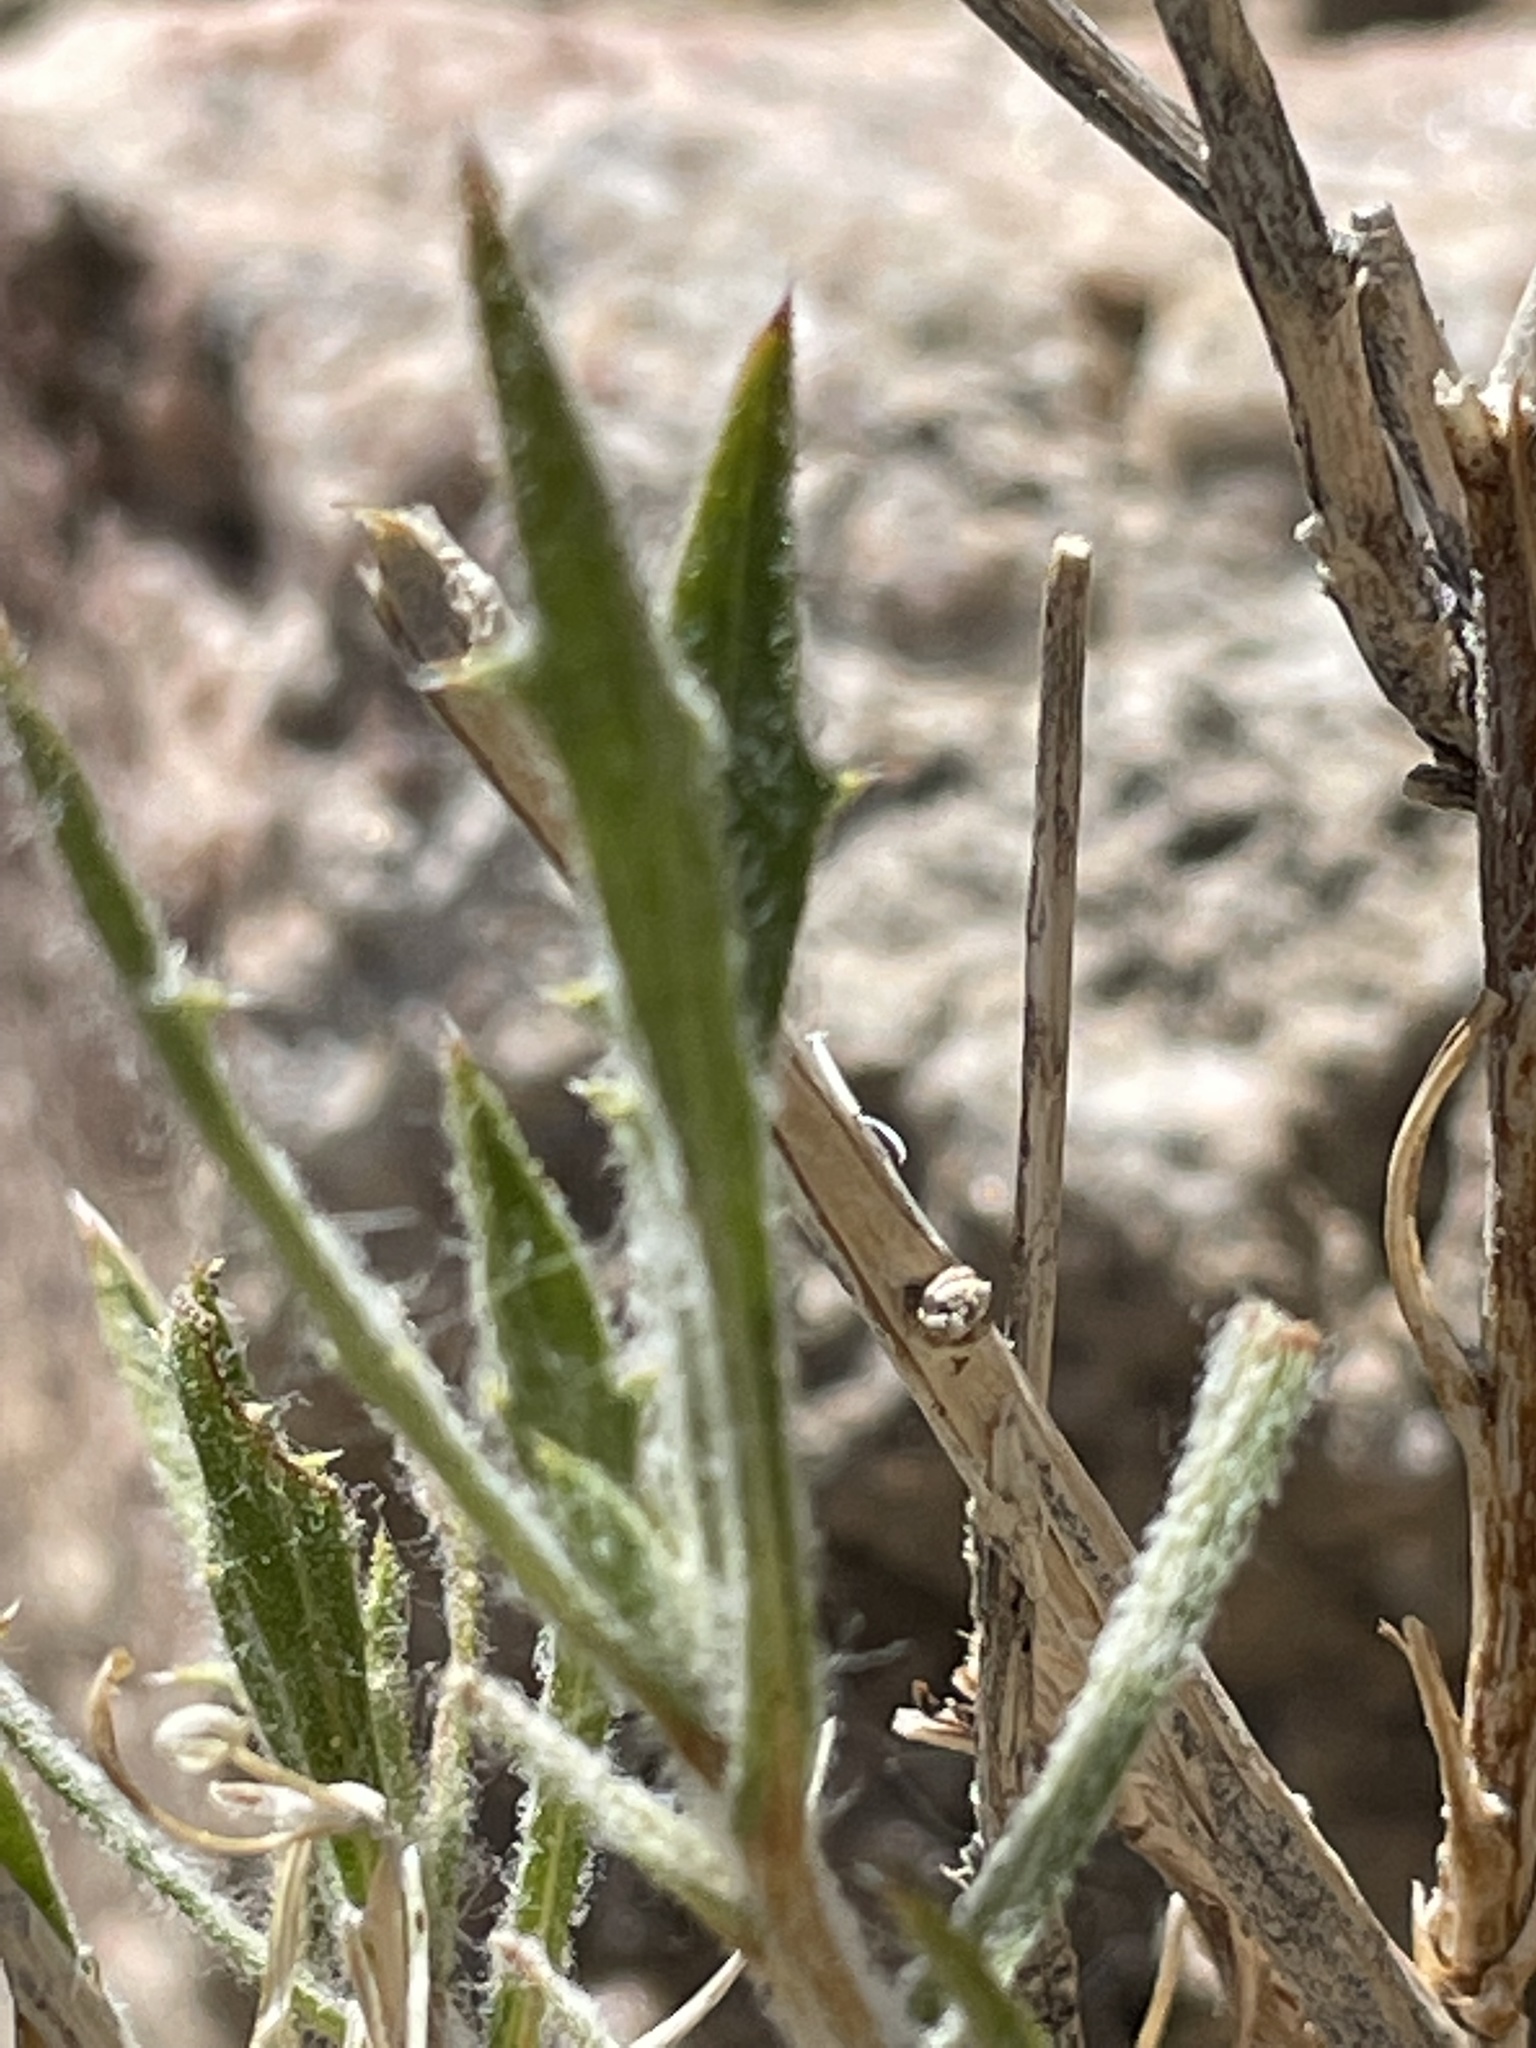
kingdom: Plantae
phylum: Tracheophyta
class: Magnoliopsida
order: Asterales
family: Asteraceae
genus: Xylorhiza
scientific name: Xylorhiza tortifolia
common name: Hurt-leaf woody-aster
